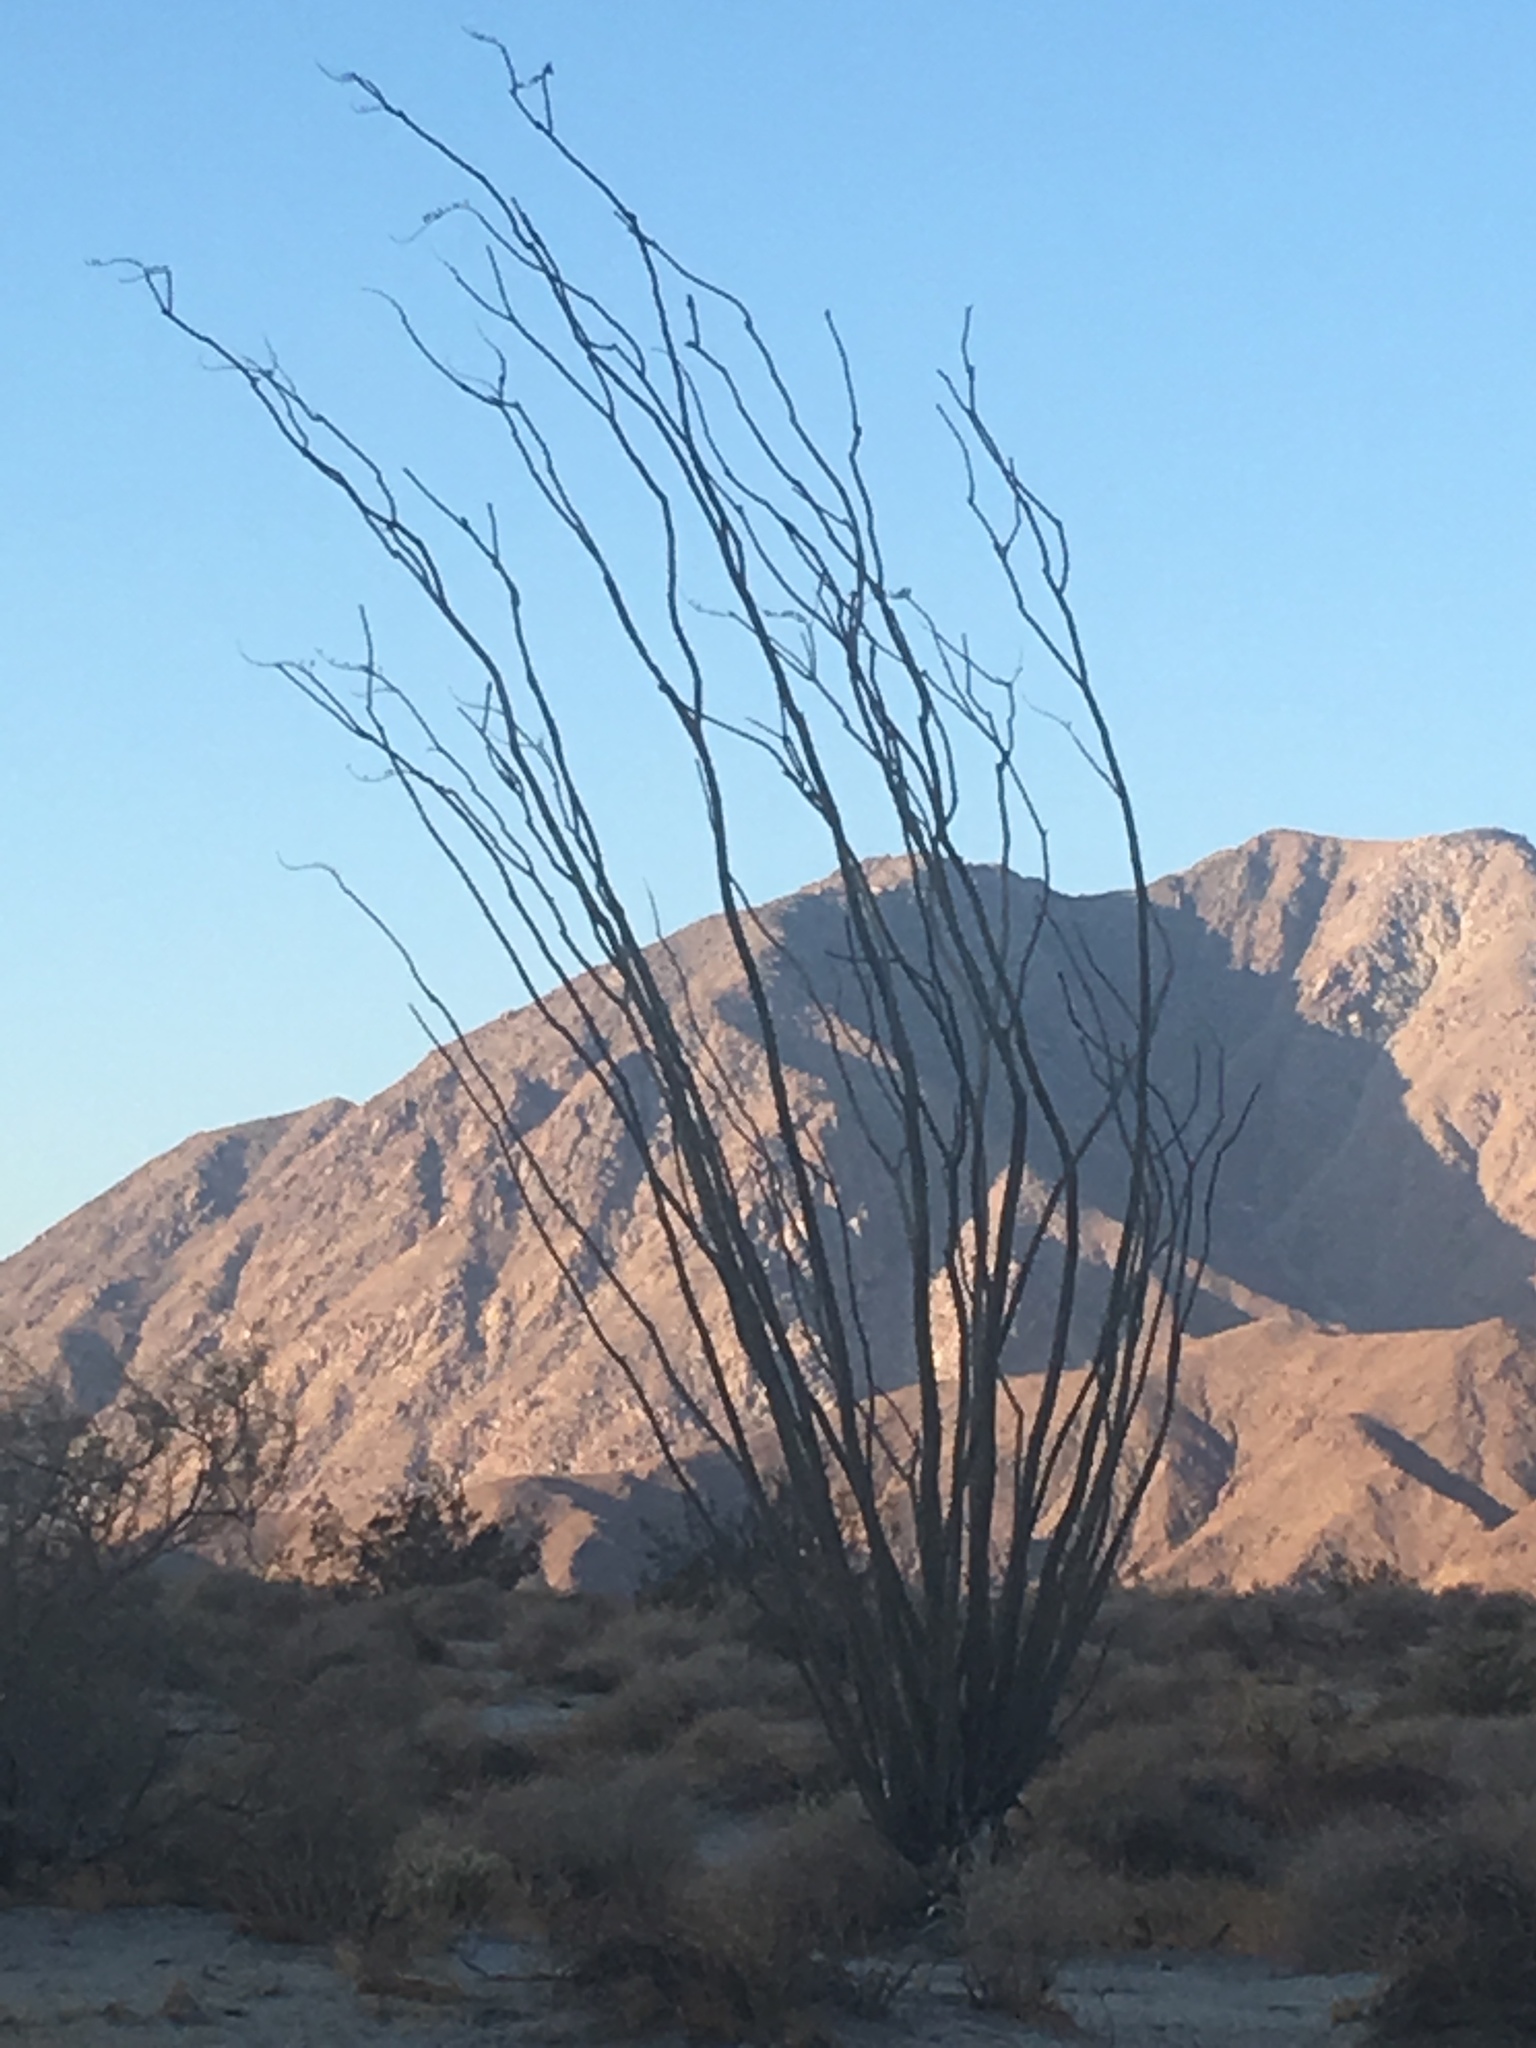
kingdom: Plantae
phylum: Tracheophyta
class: Magnoliopsida
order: Ericales
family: Fouquieriaceae
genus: Fouquieria
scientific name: Fouquieria splendens
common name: Vine-cactus
